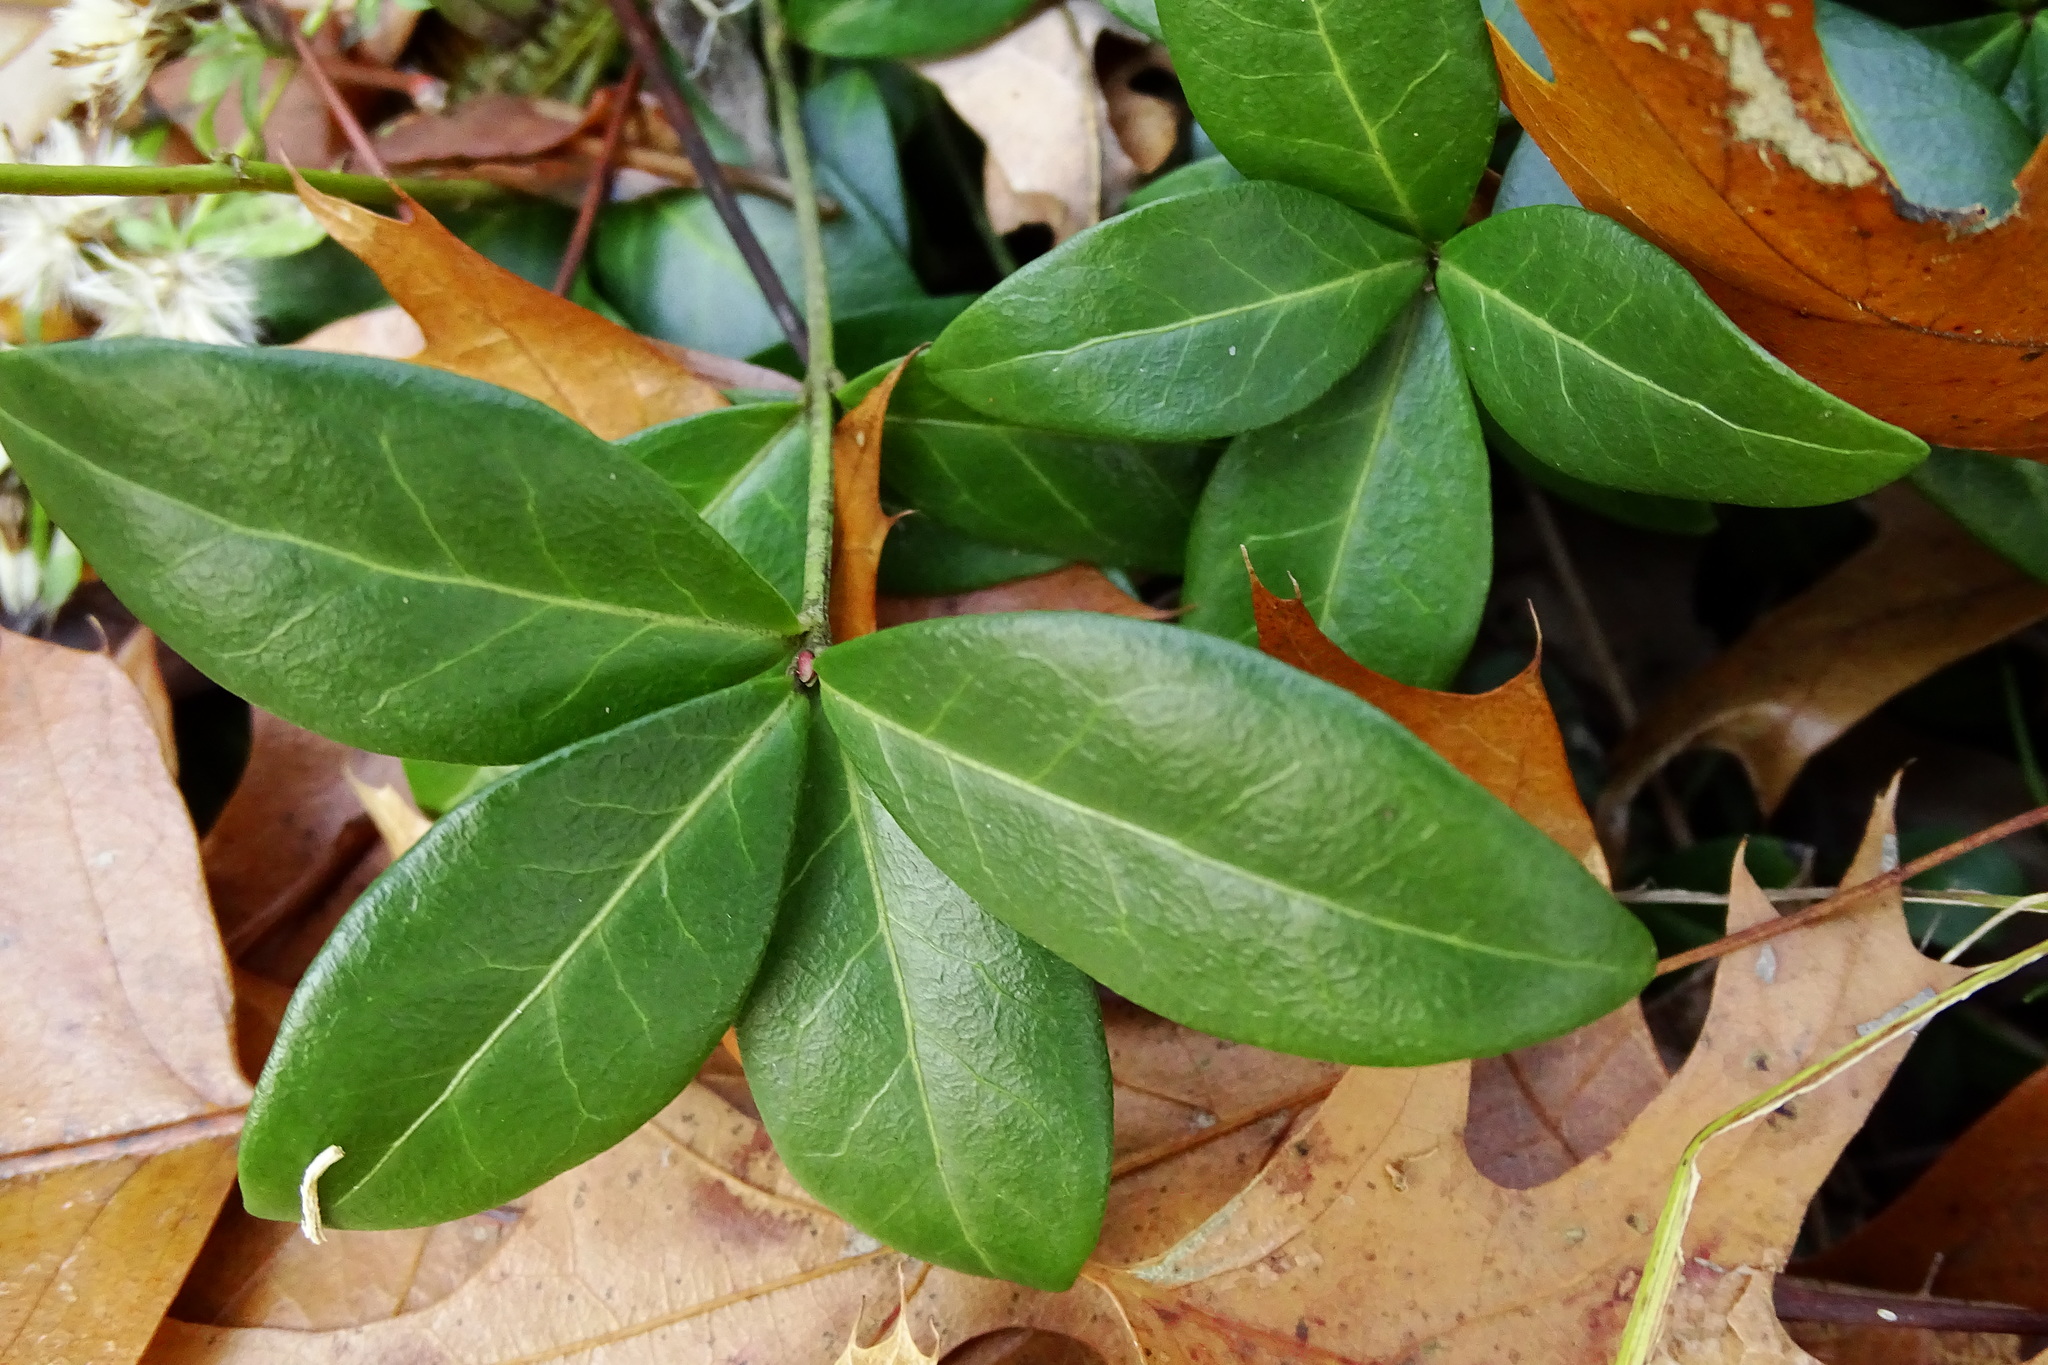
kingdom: Plantae
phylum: Tracheophyta
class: Magnoliopsida
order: Gentianales
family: Apocynaceae
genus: Vinca
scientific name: Vinca minor
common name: Lesser periwinkle
